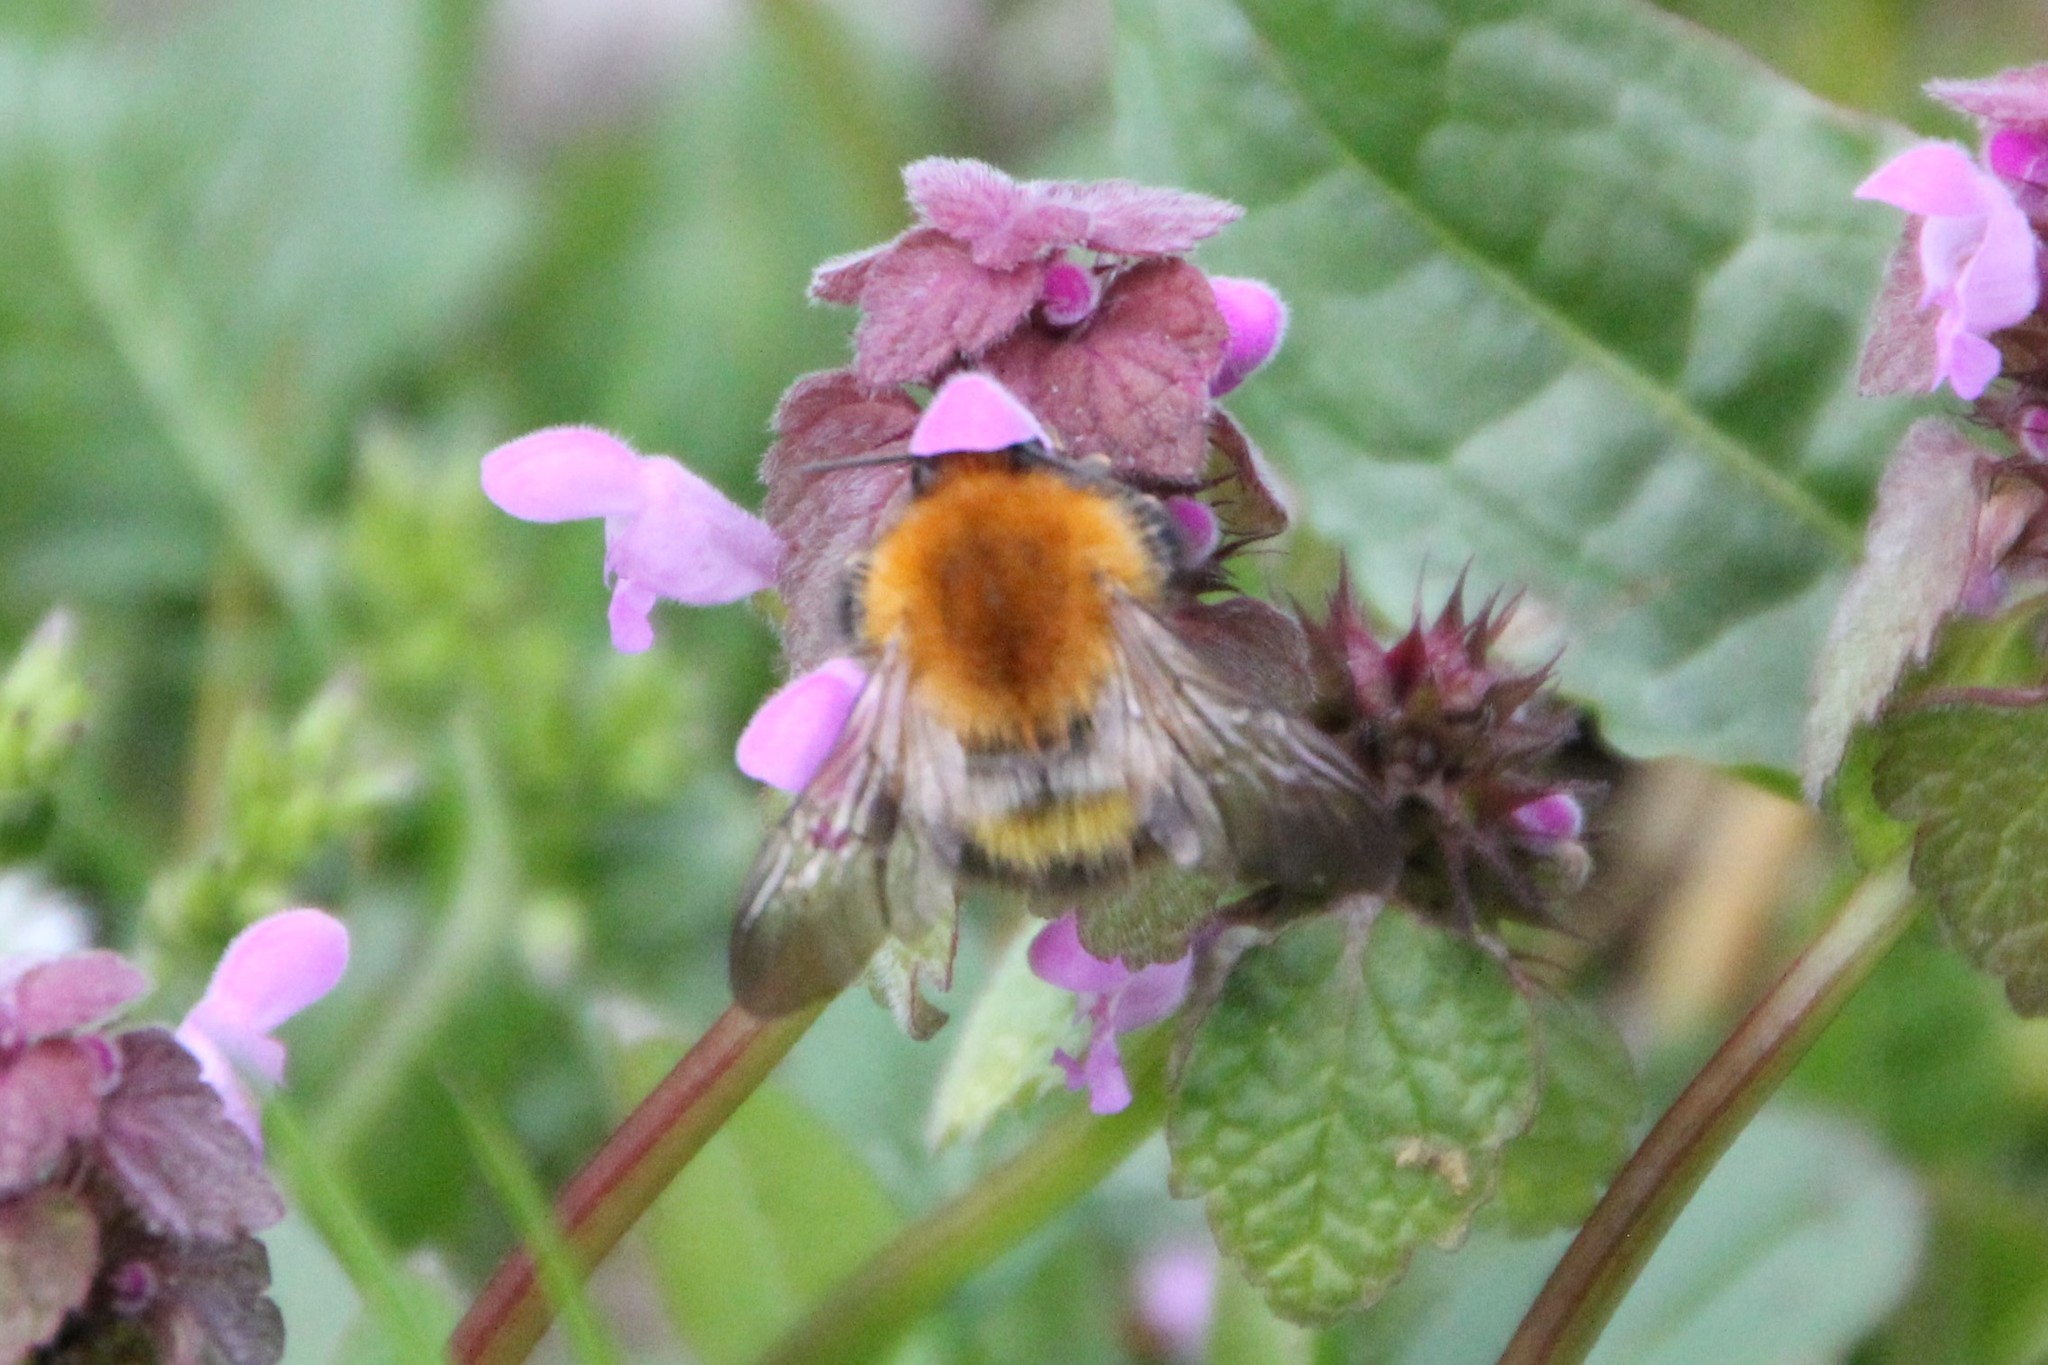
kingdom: Animalia
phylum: Arthropoda
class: Insecta
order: Hymenoptera
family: Apidae
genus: Bombus
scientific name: Bombus pascuorum
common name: Common carder bee
